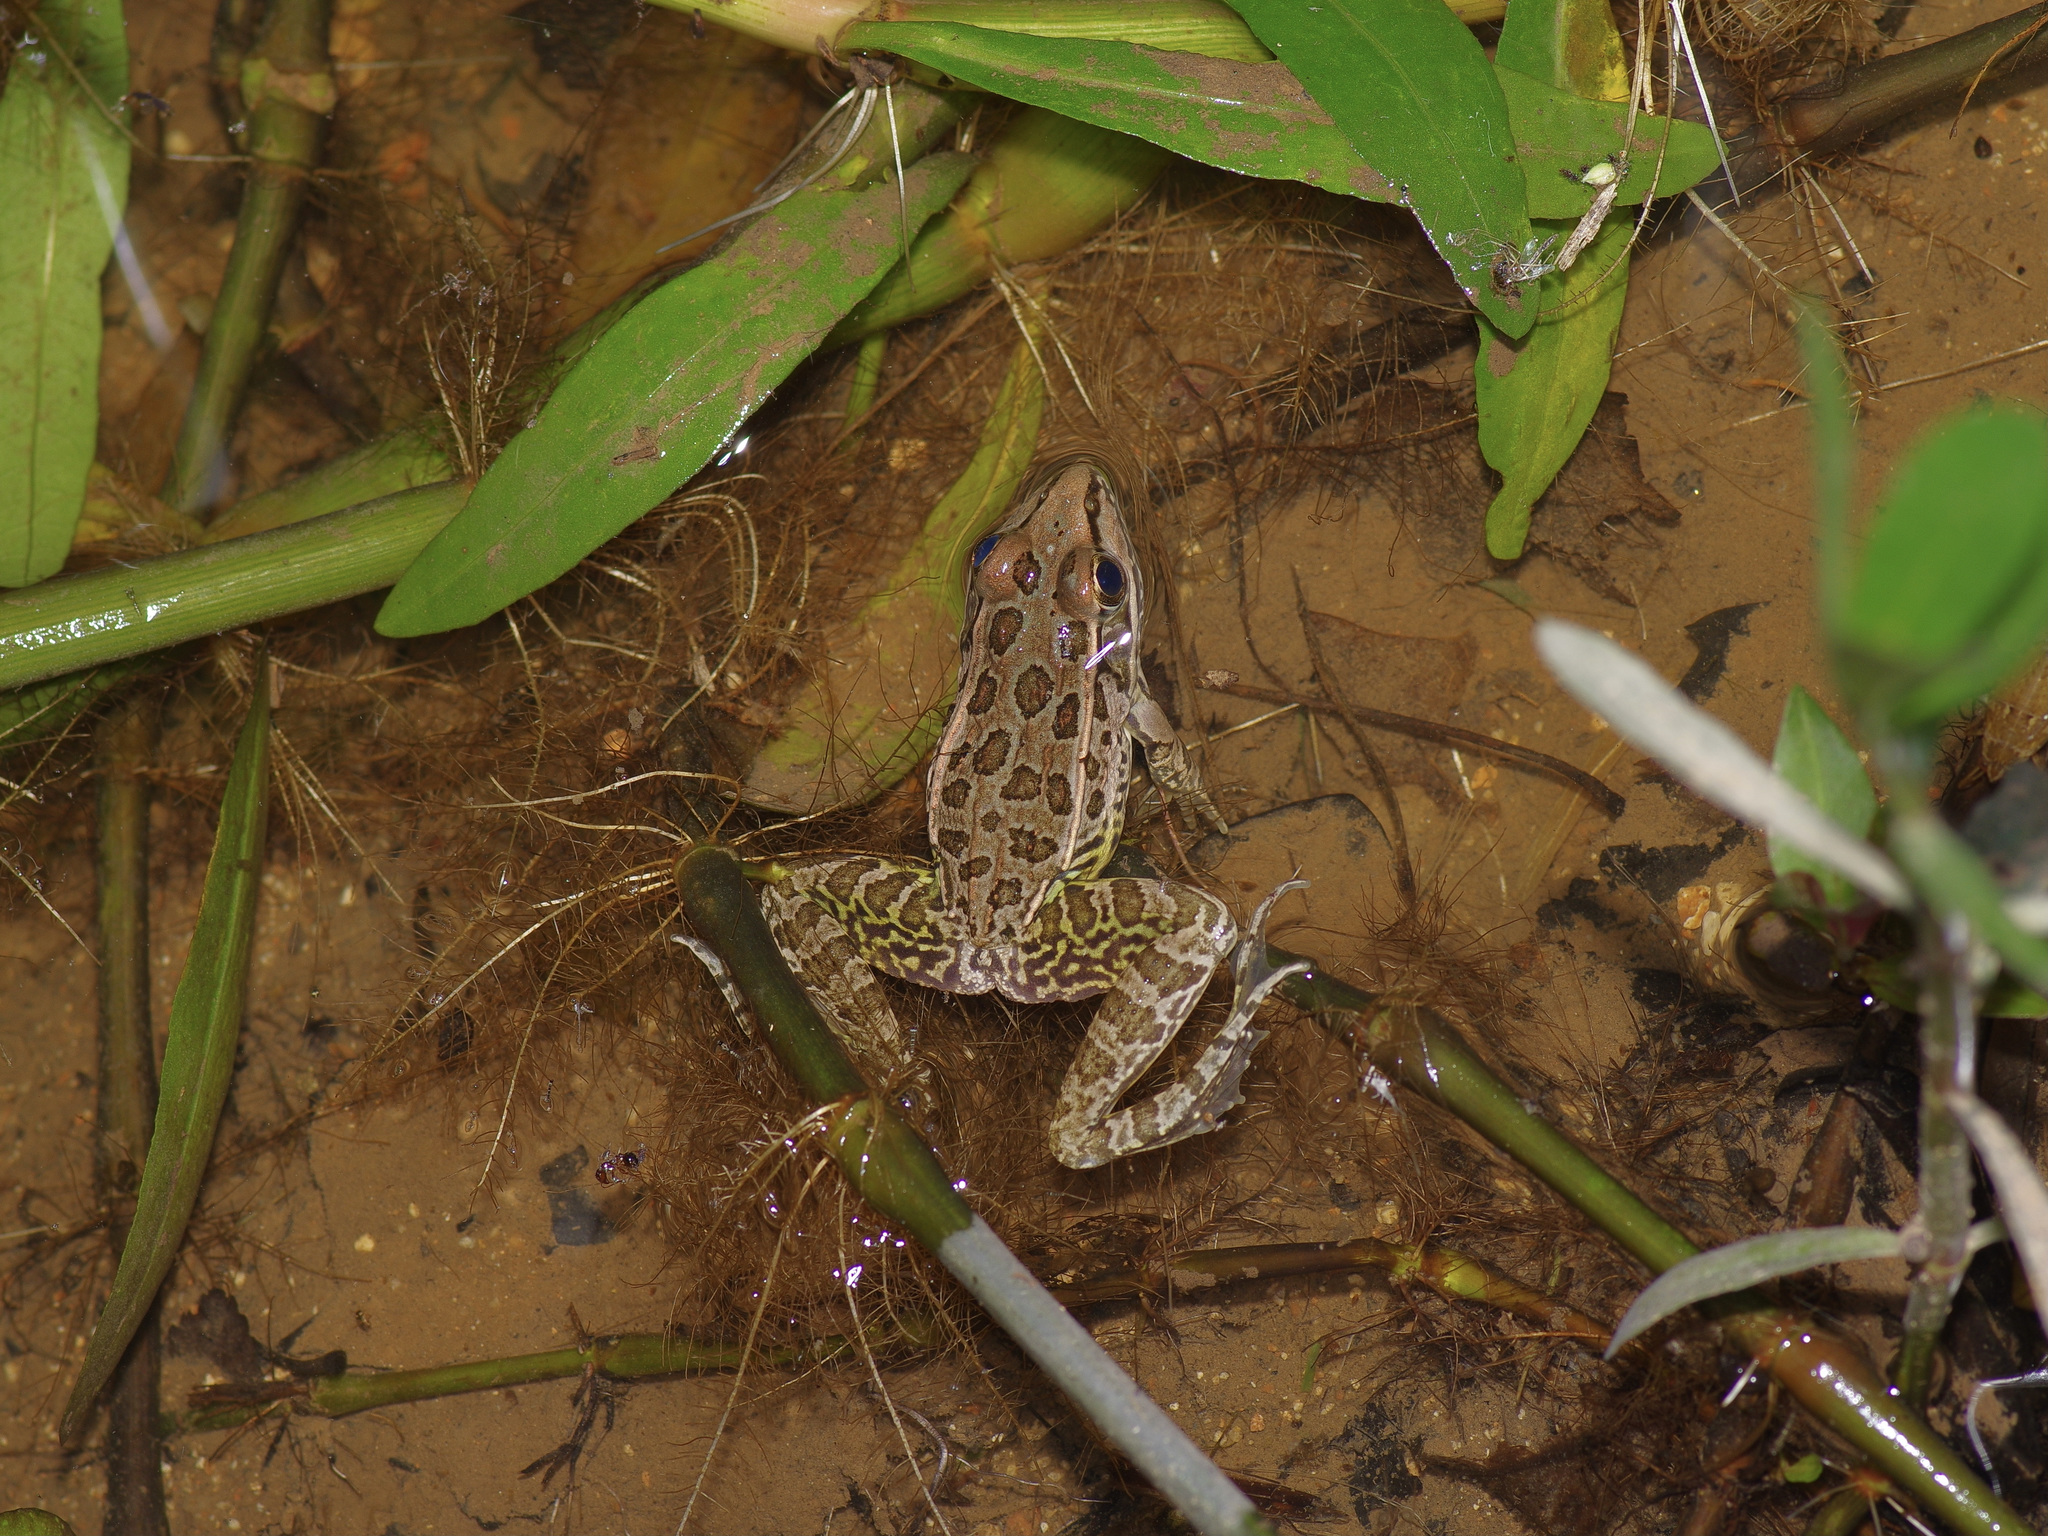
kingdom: Animalia
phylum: Chordata
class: Amphibia
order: Anura
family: Ranidae
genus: Lithobates
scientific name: Lithobates berlandieri
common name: Rio grande leopard frog
